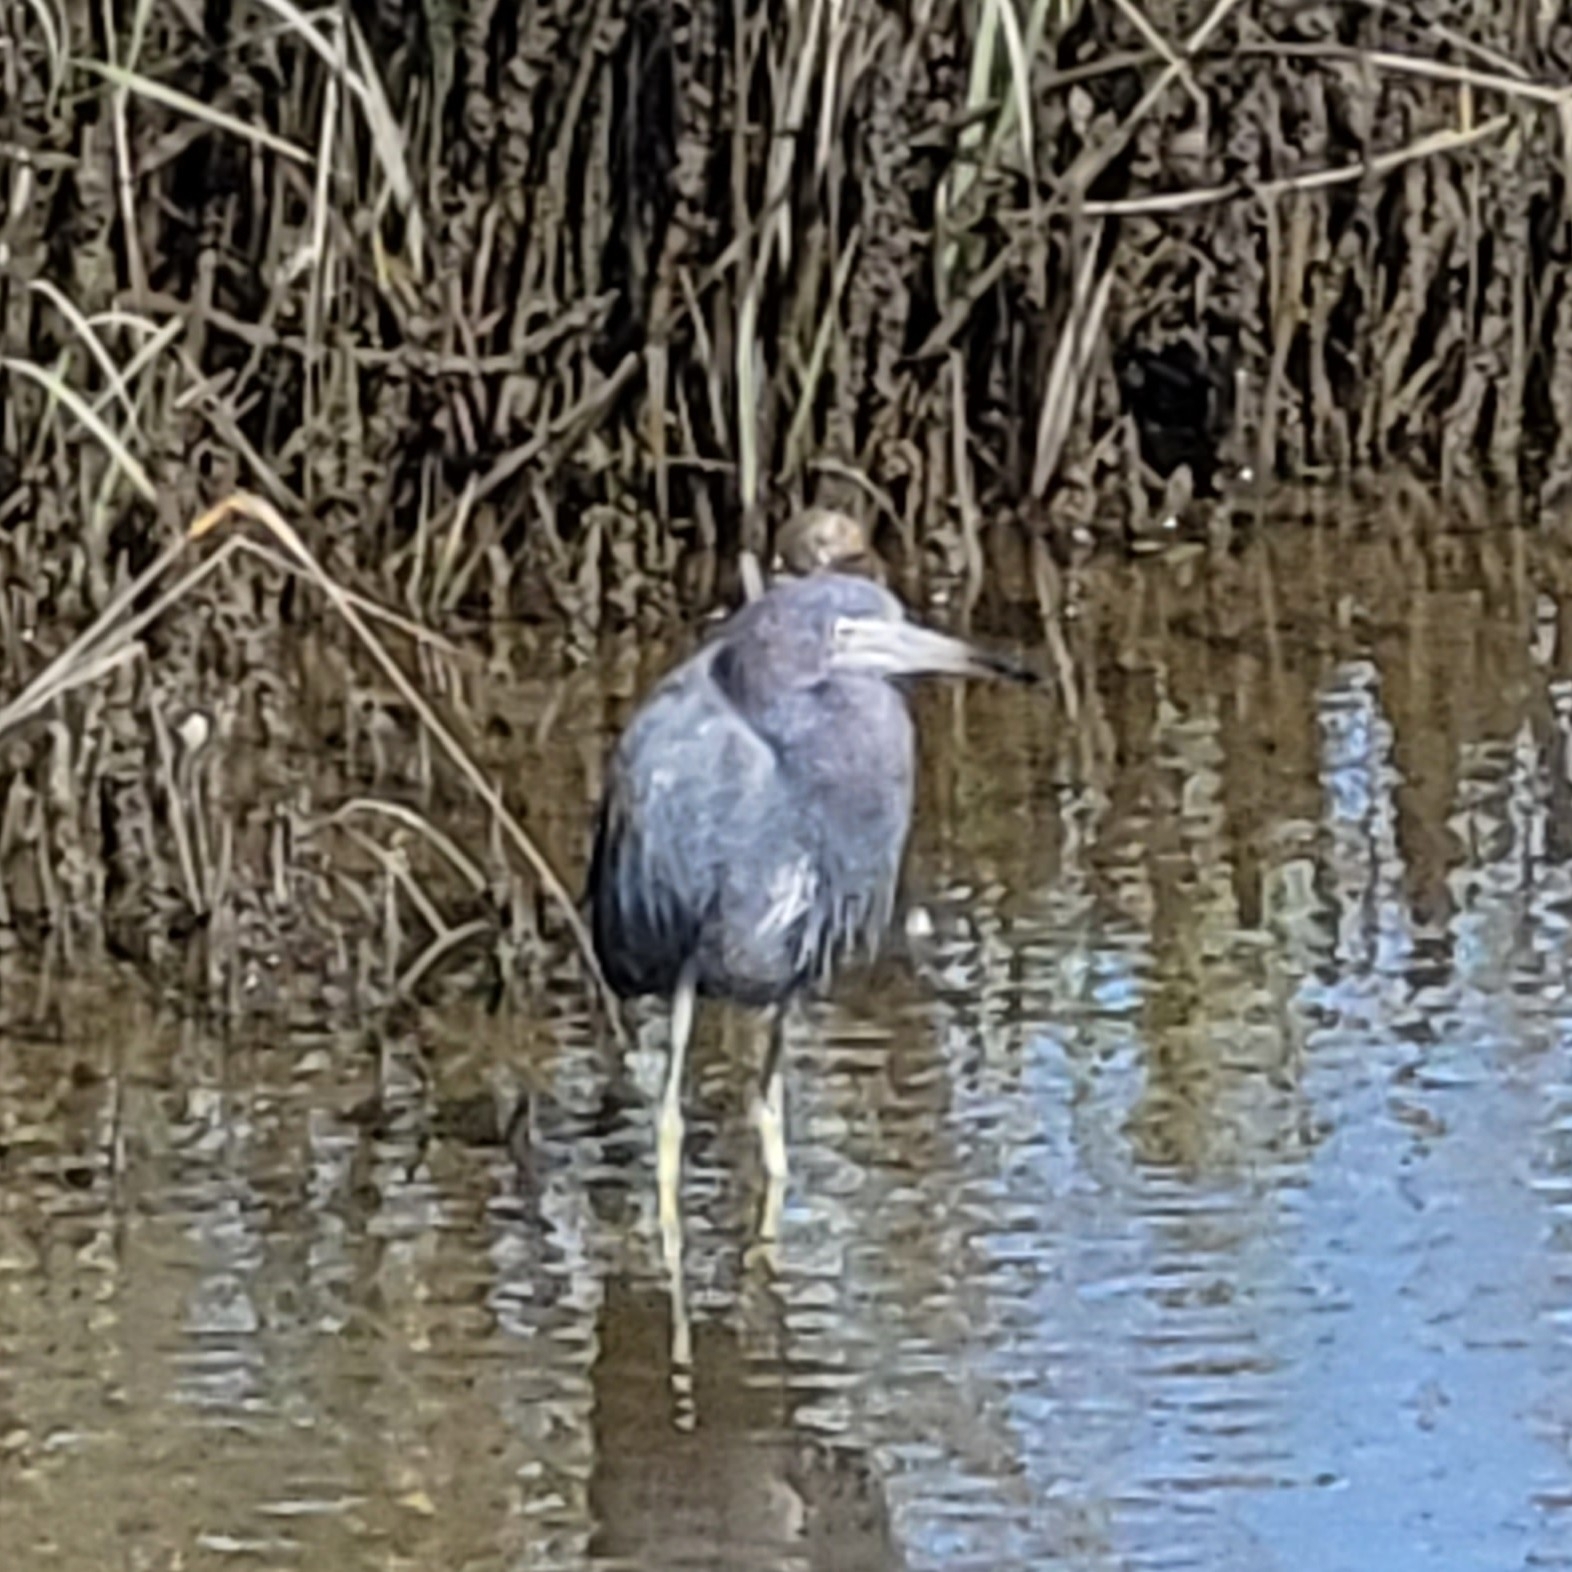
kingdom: Animalia
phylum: Chordata
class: Aves
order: Pelecaniformes
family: Ardeidae
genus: Egretta
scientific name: Egretta caerulea
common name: Little blue heron
